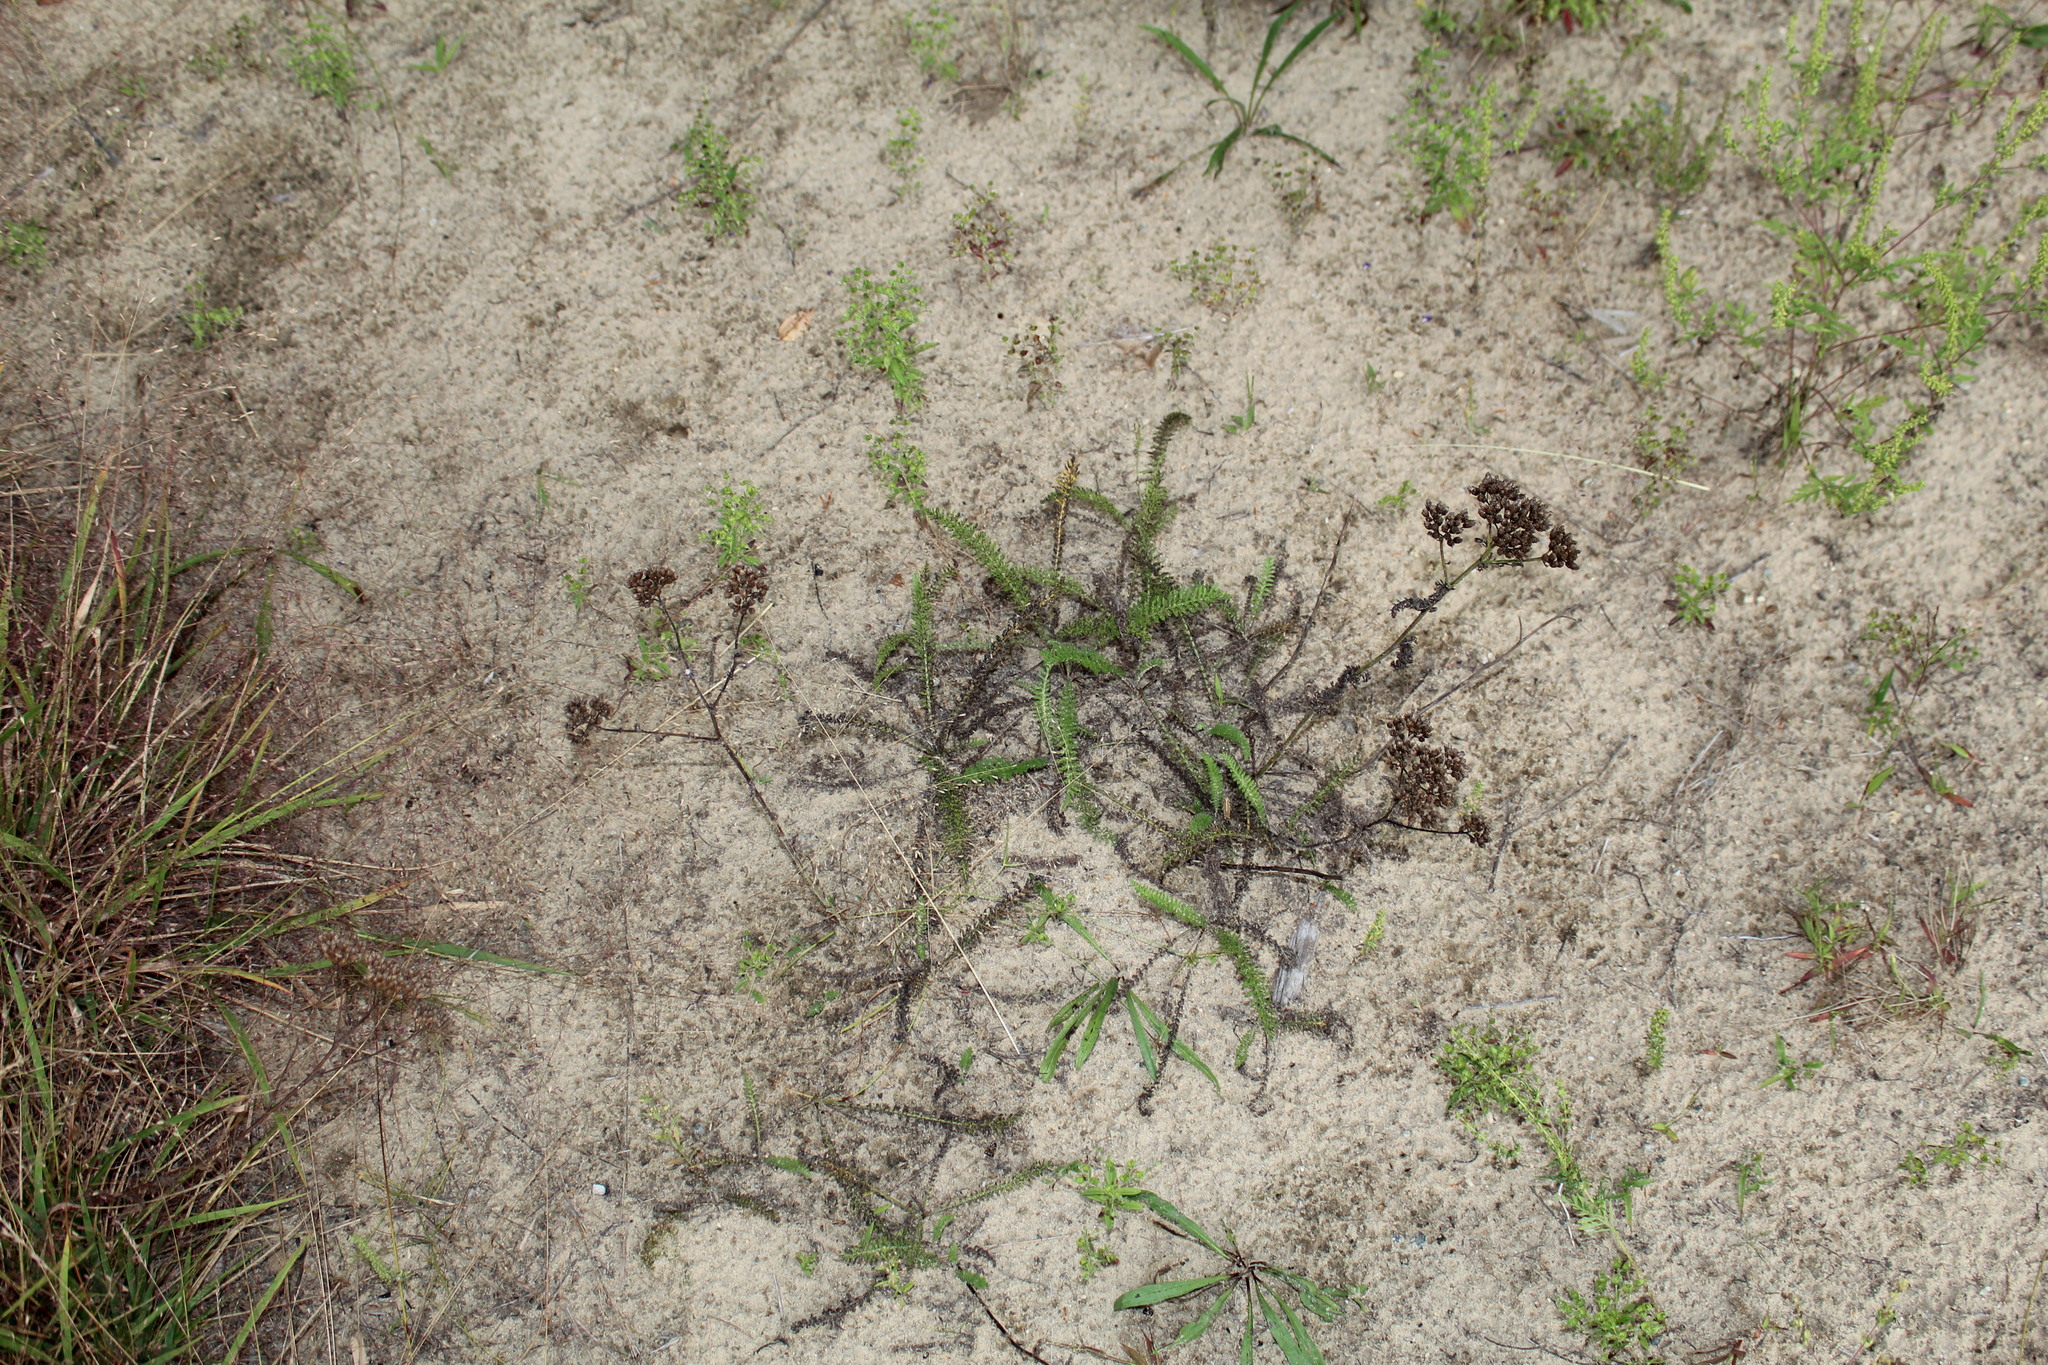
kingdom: Plantae
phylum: Tracheophyta
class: Magnoliopsida
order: Asterales
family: Asteraceae
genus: Achillea
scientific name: Achillea millefolium
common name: Yarrow
